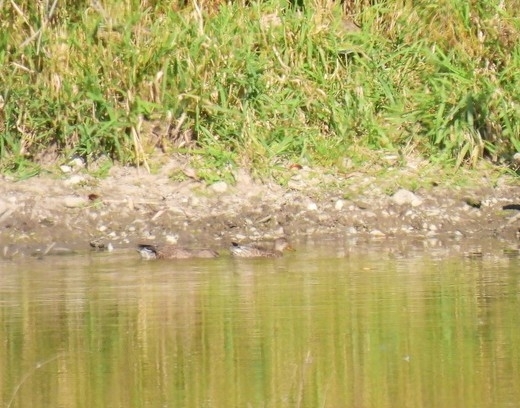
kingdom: Animalia
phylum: Chordata
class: Aves
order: Anseriformes
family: Anatidae
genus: Anas
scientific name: Anas crecca
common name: Eurasian teal
